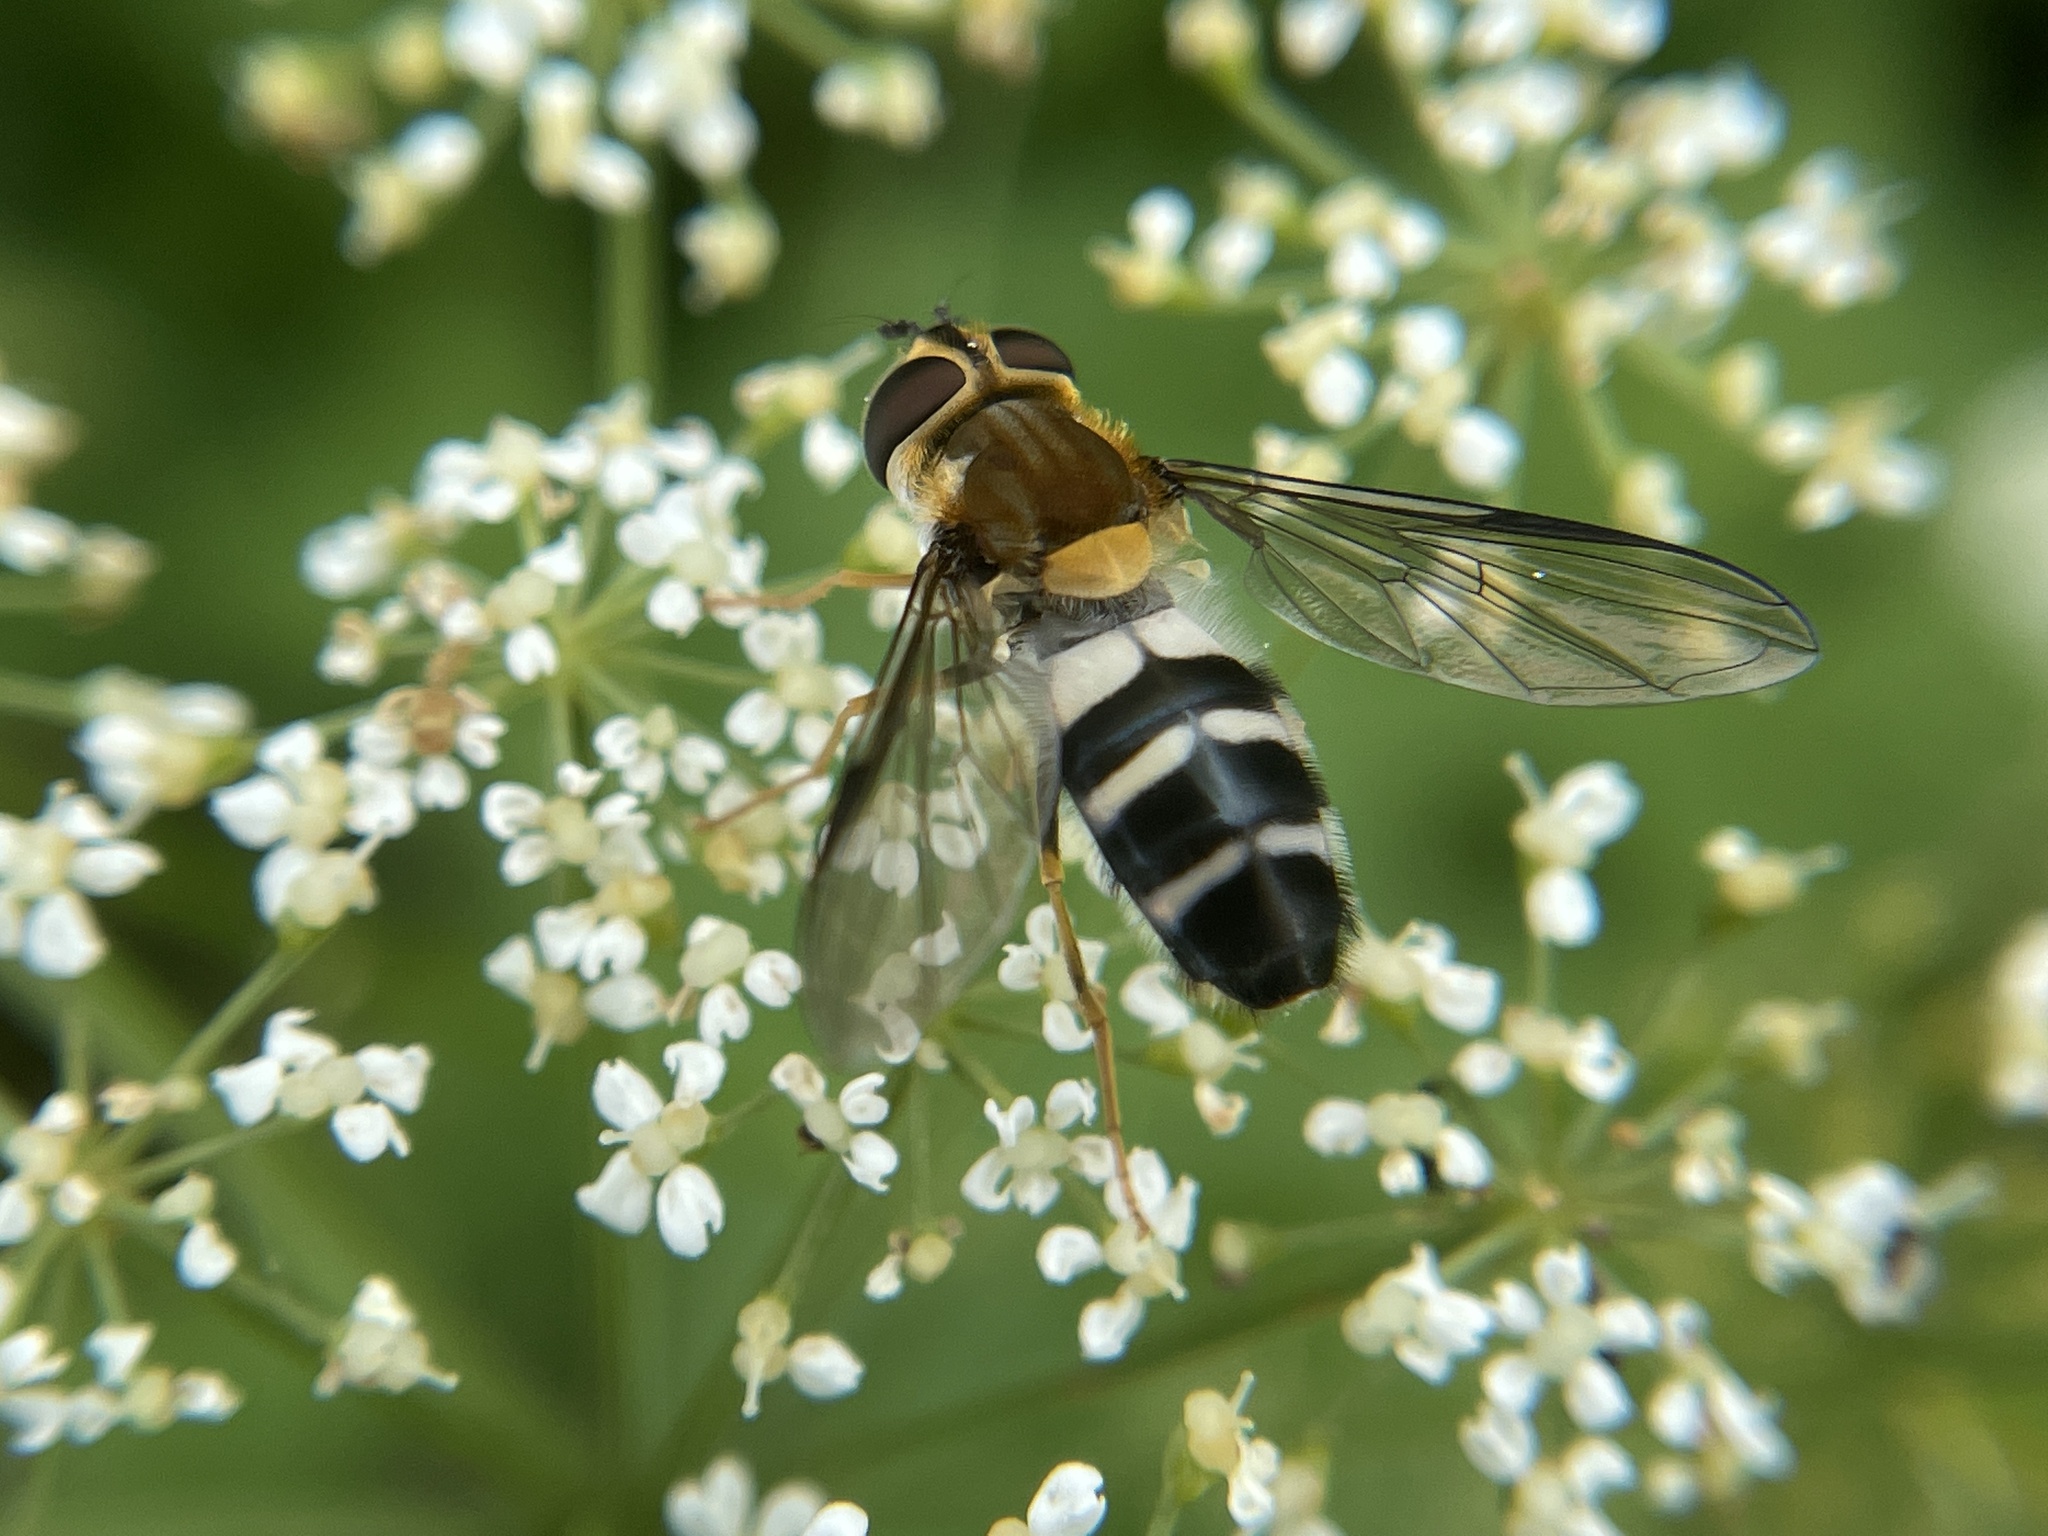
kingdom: Animalia
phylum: Arthropoda
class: Insecta
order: Diptera
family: Syrphidae
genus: Leucozona
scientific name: Leucozona glaucia
